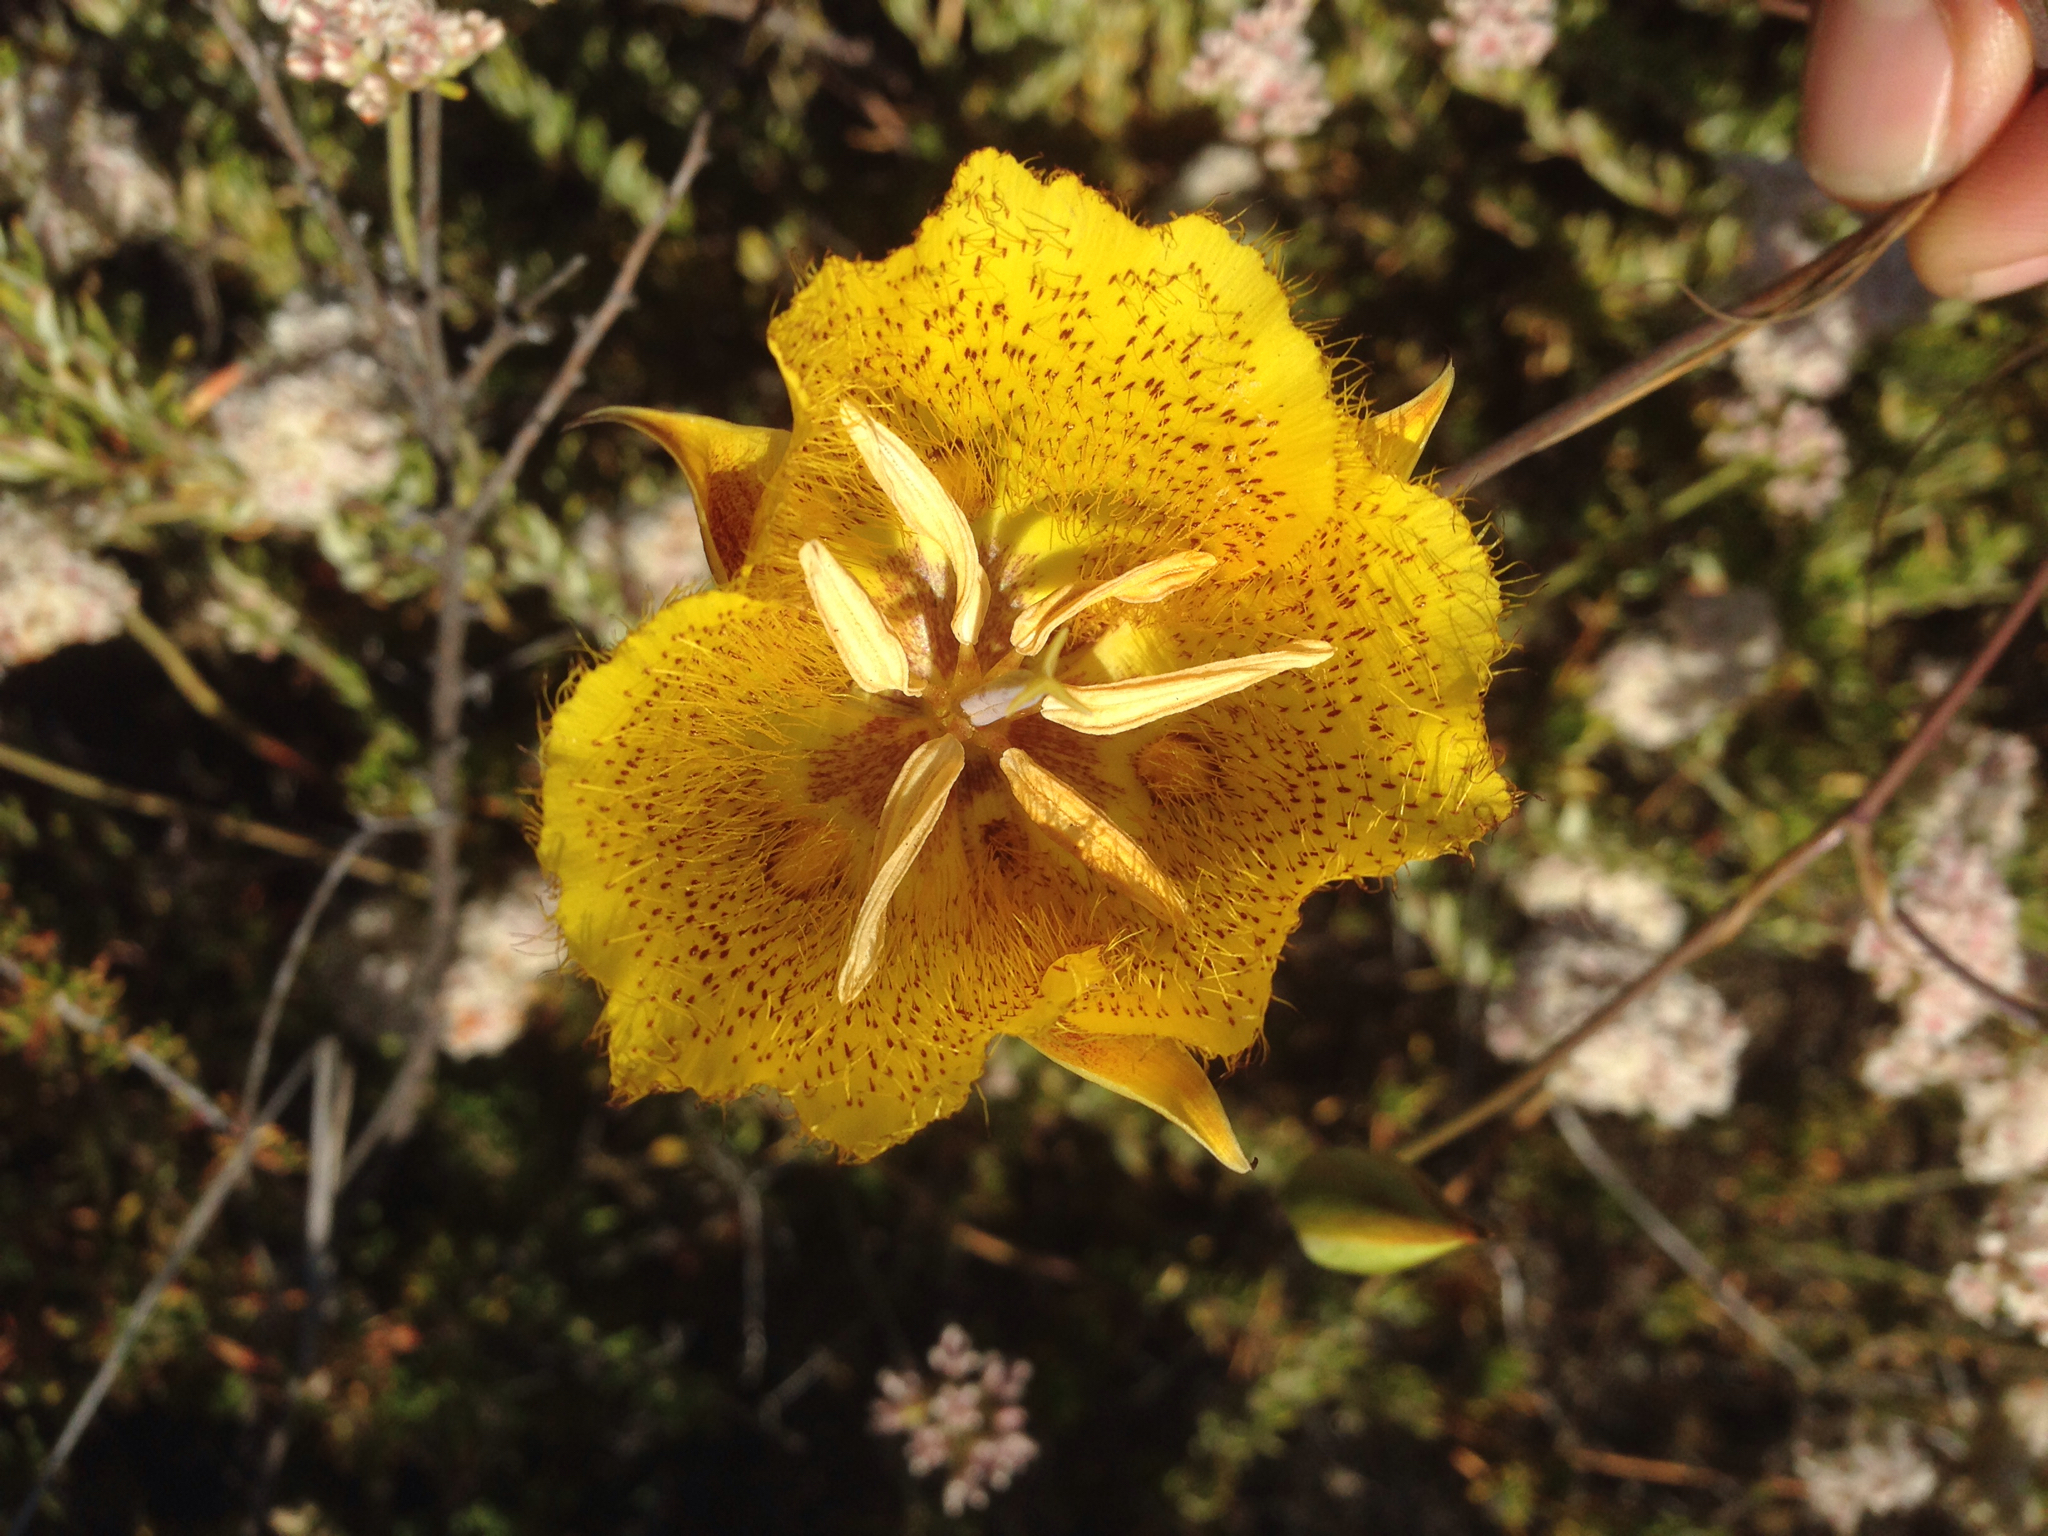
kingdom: Plantae
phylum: Tracheophyta
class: Liliopsida
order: Liliales
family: Liliaceae
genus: Calochortus
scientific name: Calochortus weedii
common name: Weed's mariposa-lily
